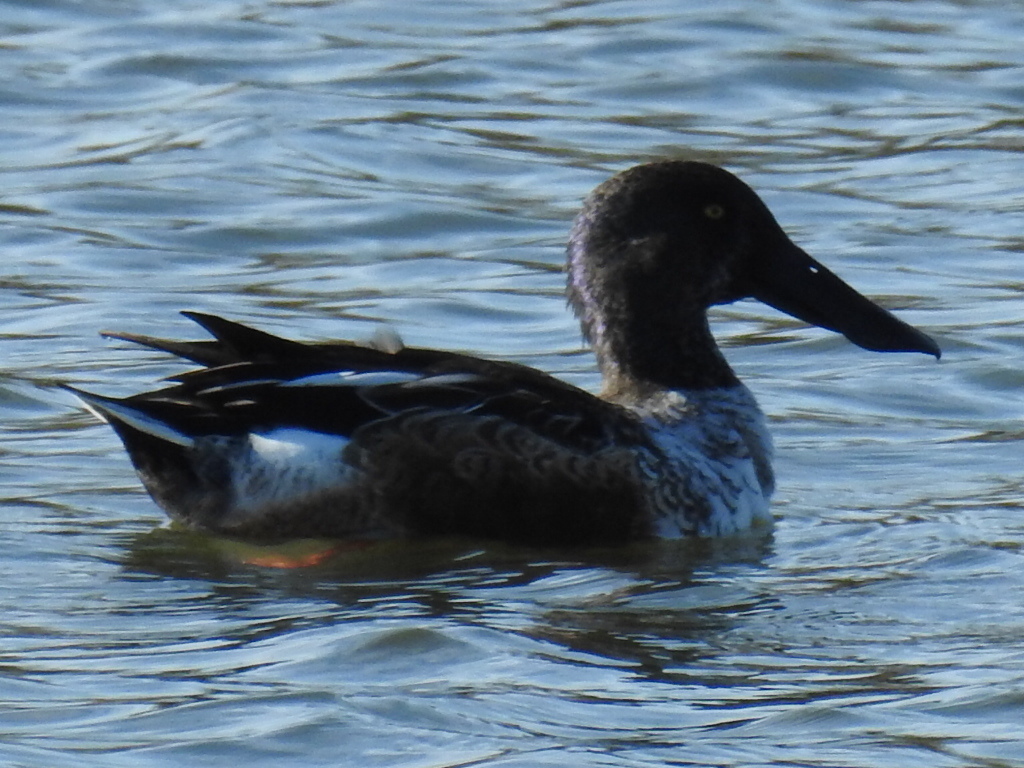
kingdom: Animalia
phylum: Chordata
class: Aves
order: Anseriformes
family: Anatidae
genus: Spatula
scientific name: Spatula clypeata
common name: Northern shoveler
